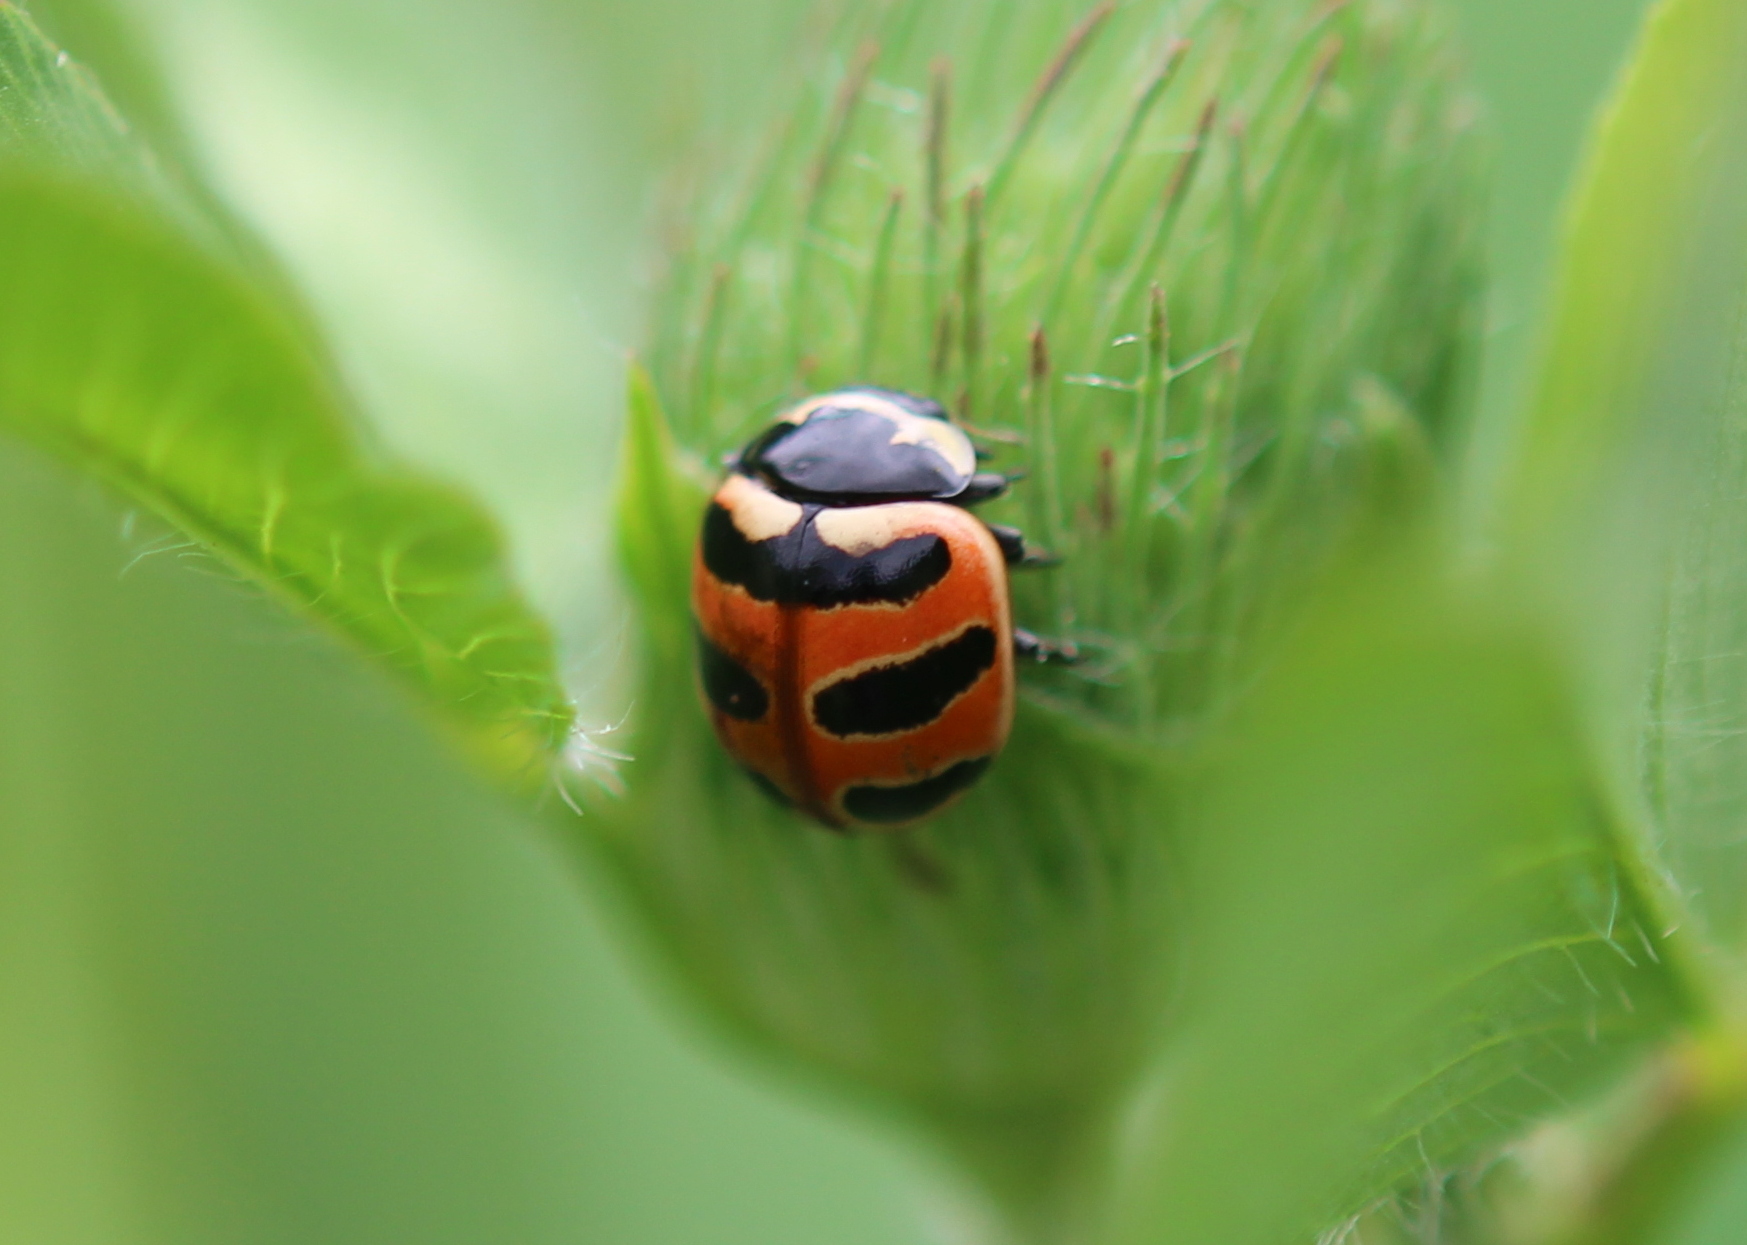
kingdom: Animalia
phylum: Arthropoda
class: Insecta
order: Coleoptera
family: Coccinellidae
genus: Coccinella
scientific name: Coccinella trifasciata
